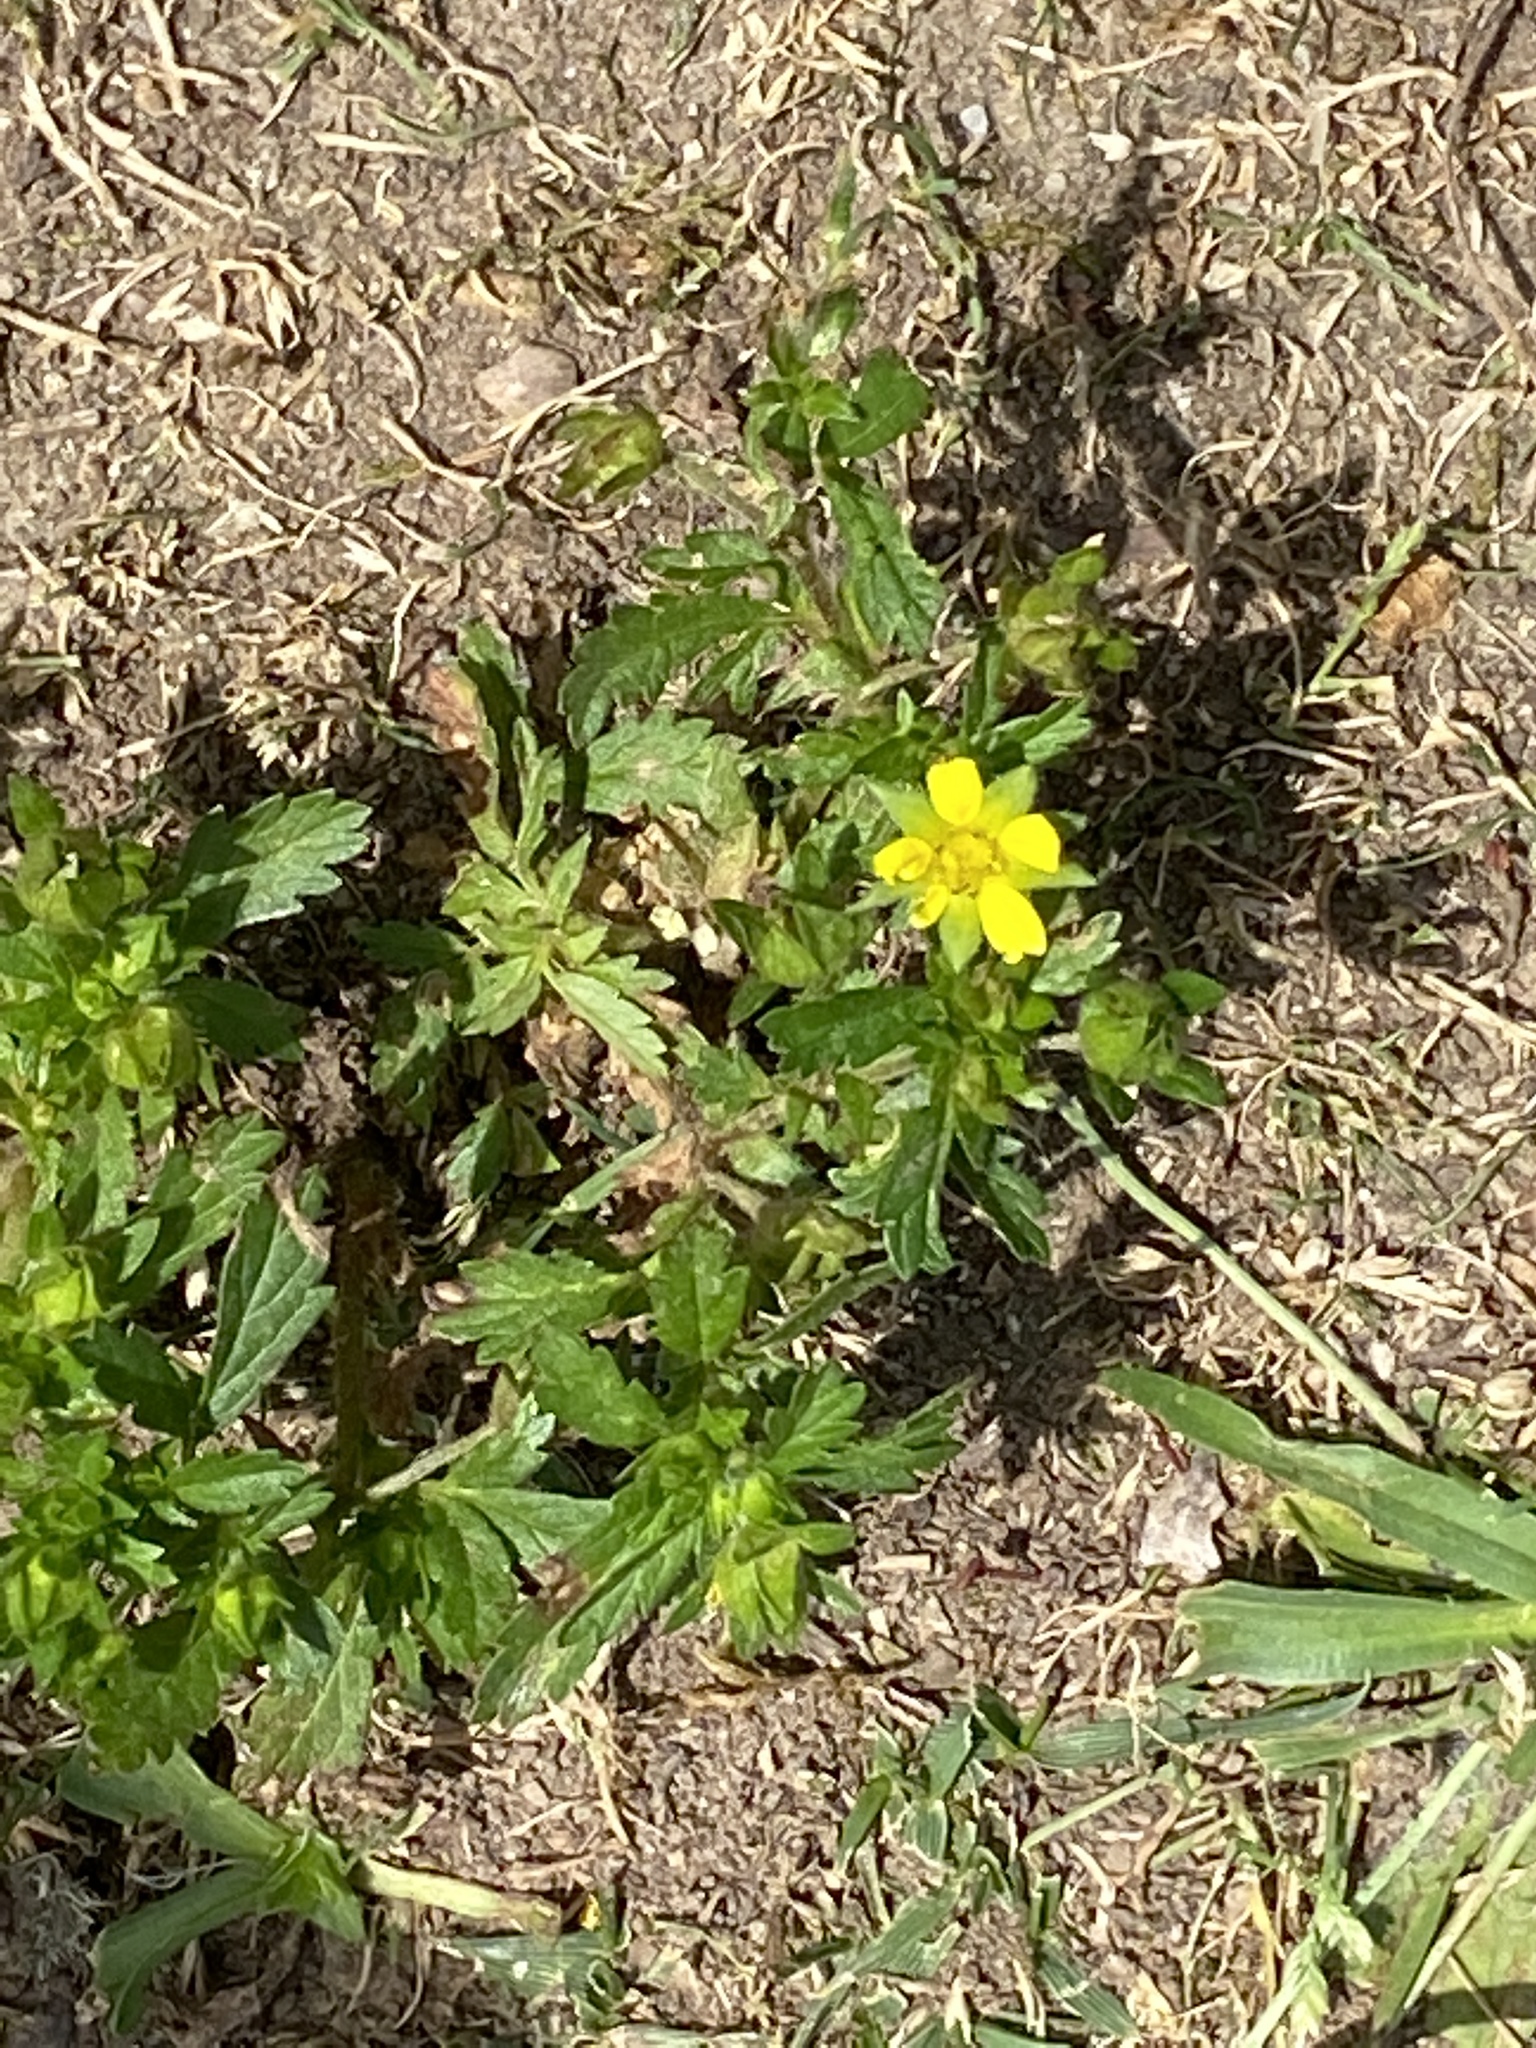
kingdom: Plantae
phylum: Tracheophyta
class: Magnoliopsida
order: Rosales
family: Rosaceae
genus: Potentilla
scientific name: Potentilla norvegica
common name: Ternate-leaved cinquefoil
